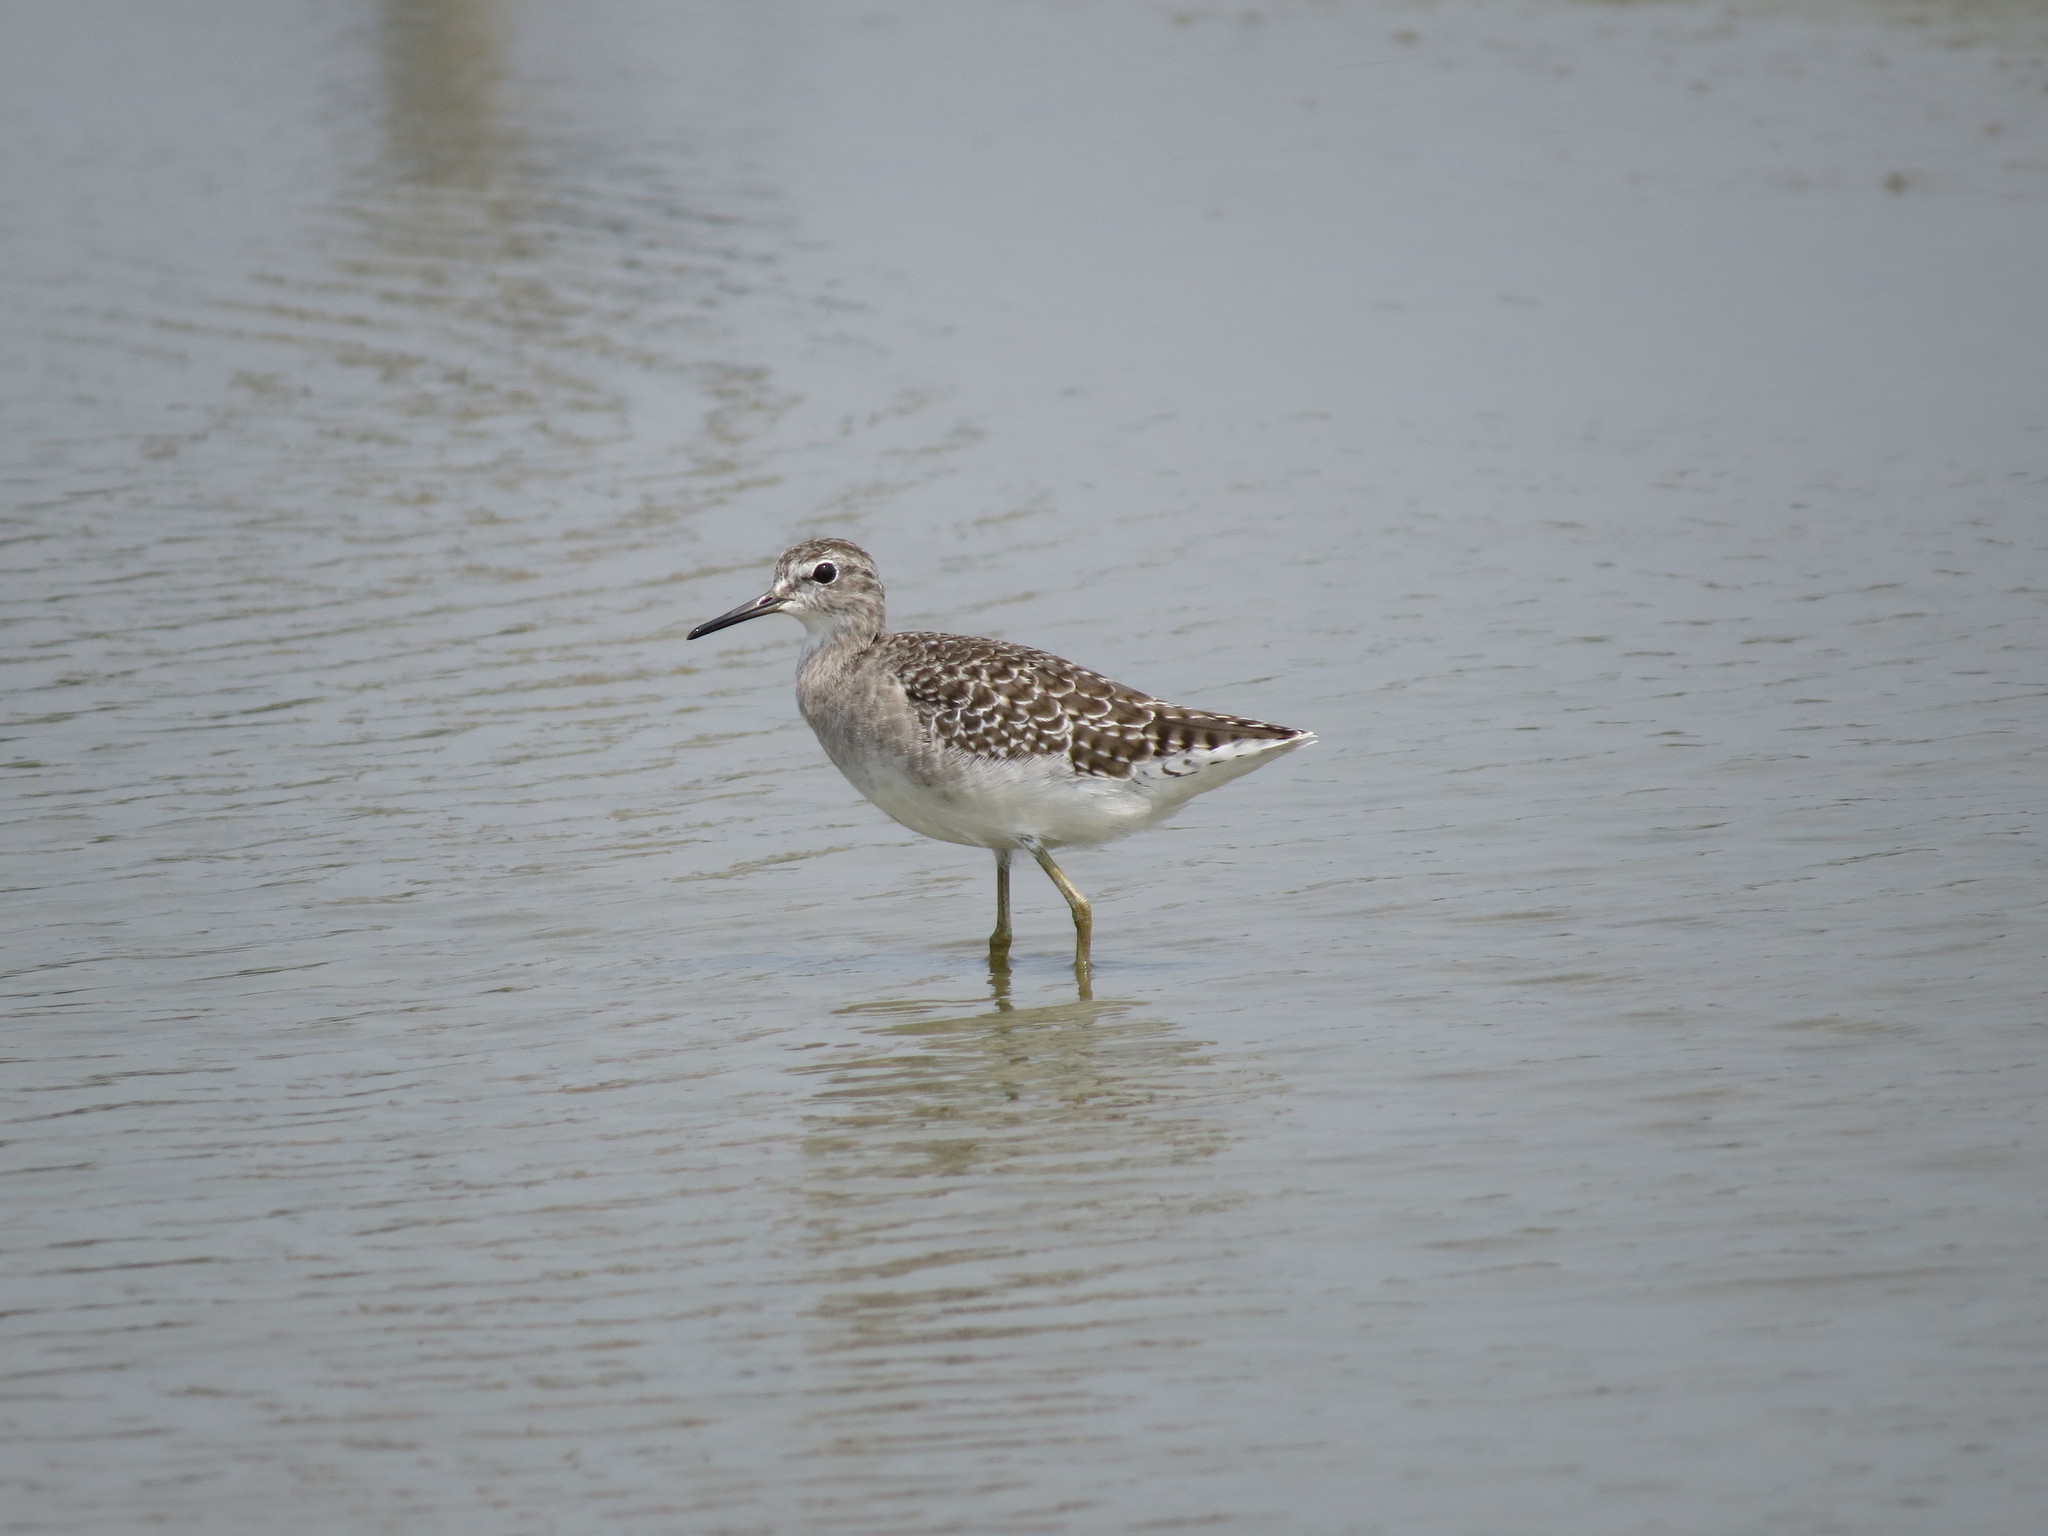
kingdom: Animalia
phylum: Chordata
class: Aves
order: Charadriiformes
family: Scolopacidae
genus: Tringa
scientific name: Tringa glareola
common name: Wood sandpiper
